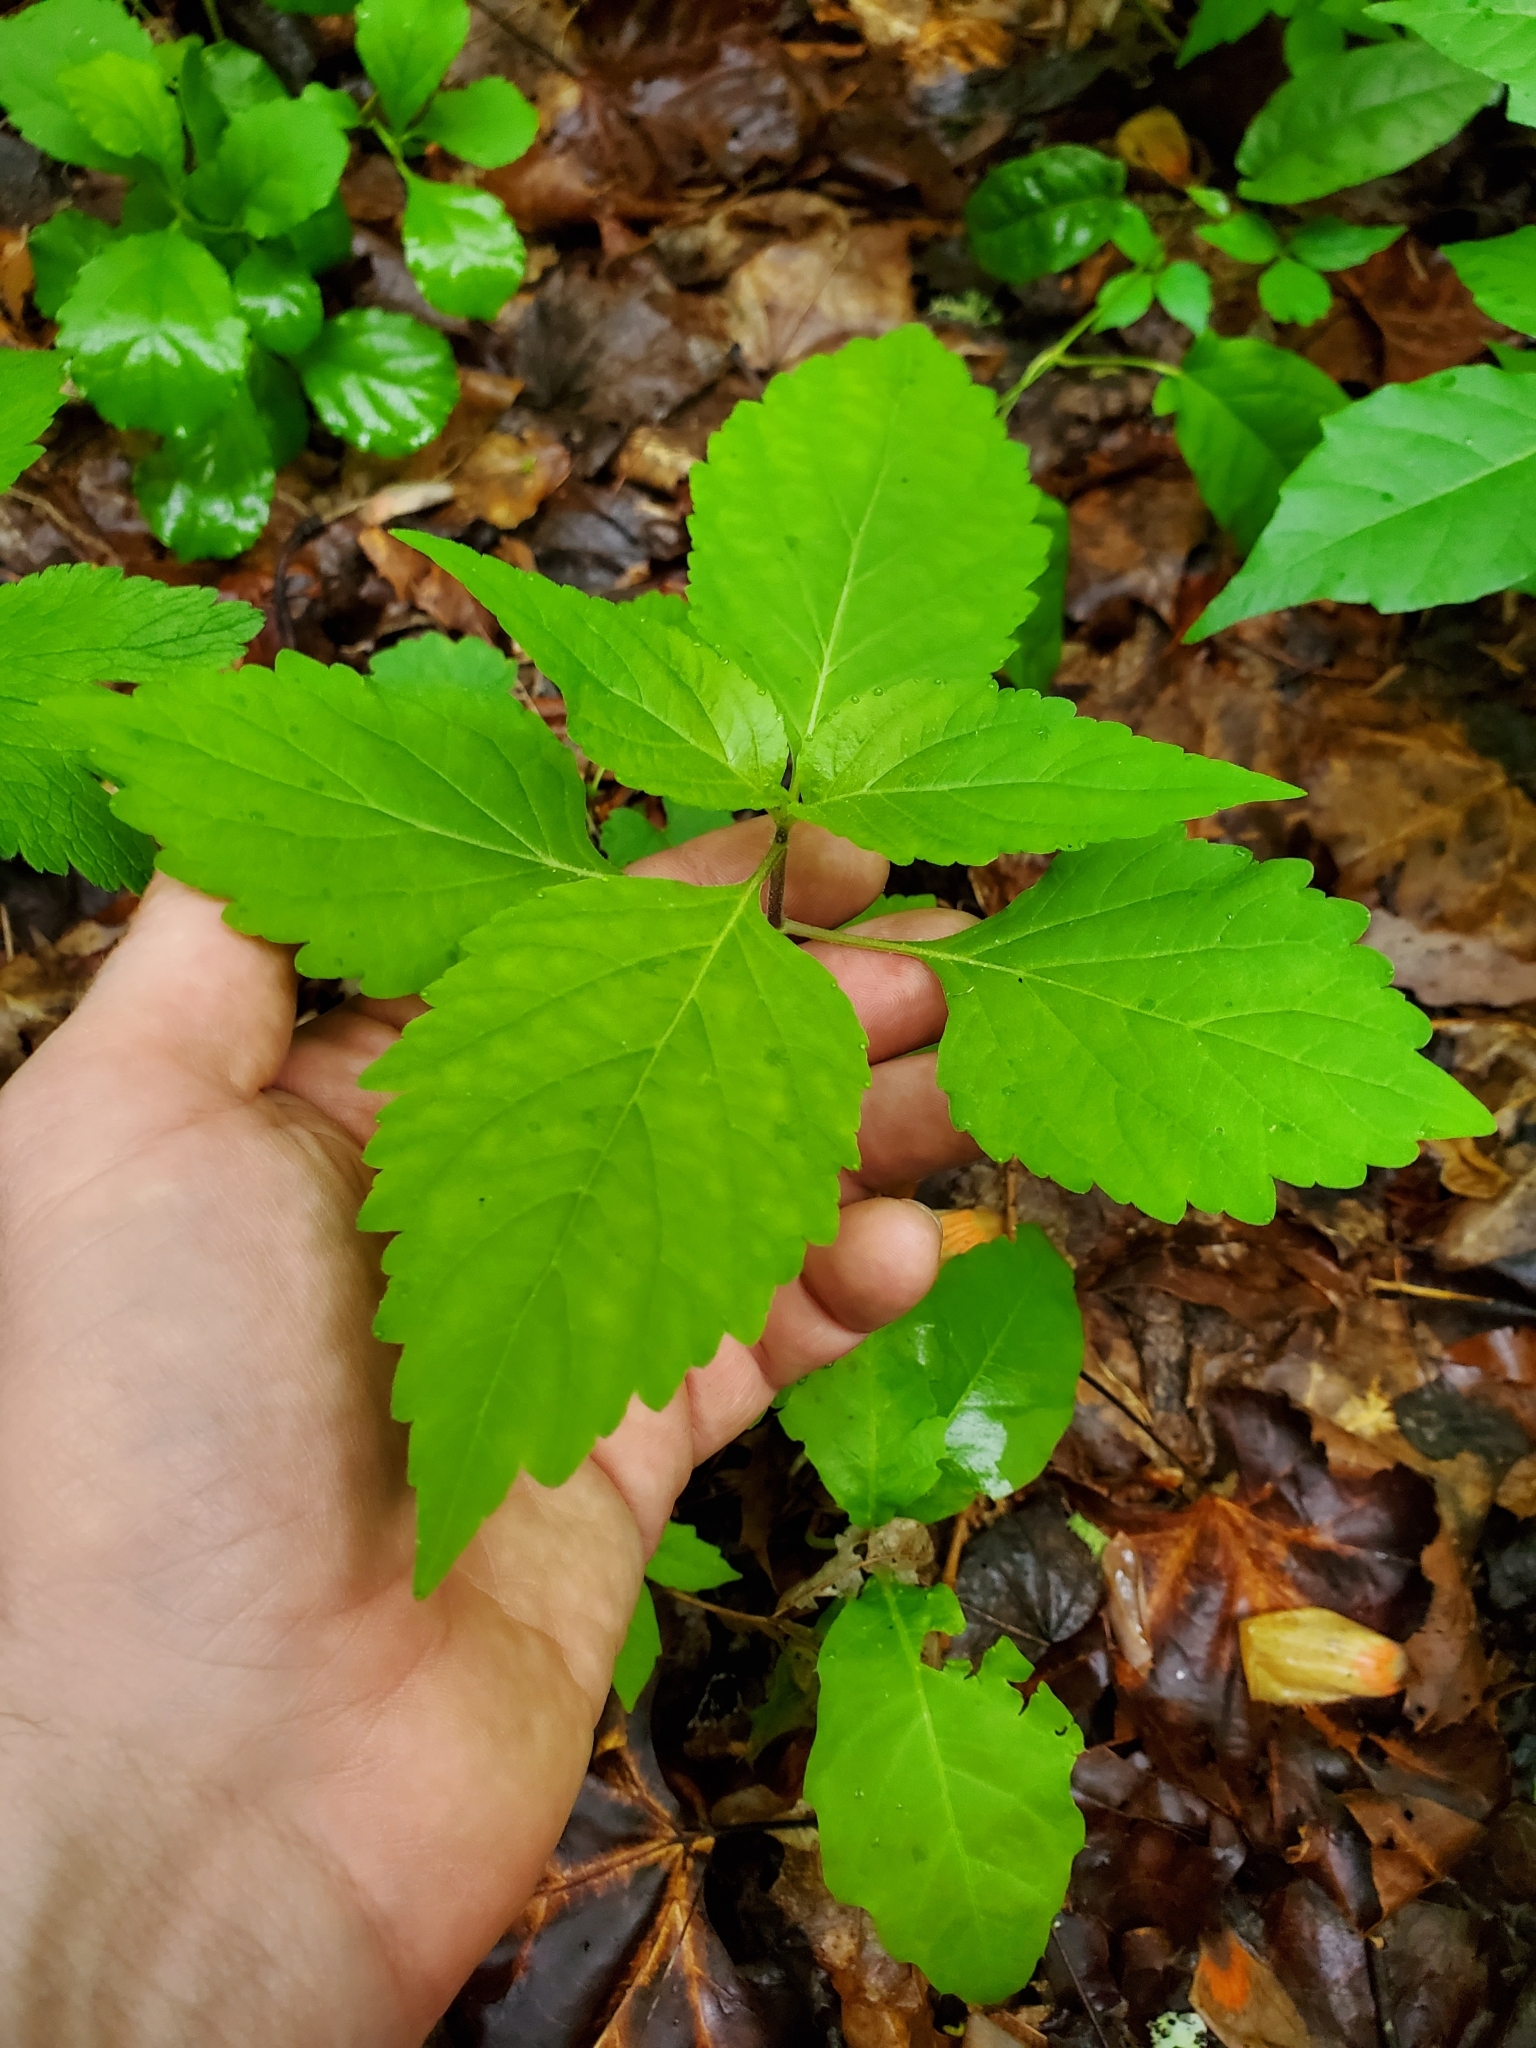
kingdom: Plantae
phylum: Tracheophyta
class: Magnoliopsida
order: Lamiales
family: Phrymaceae
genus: Phryma
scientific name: Phryma leptostachya
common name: American lopseed
